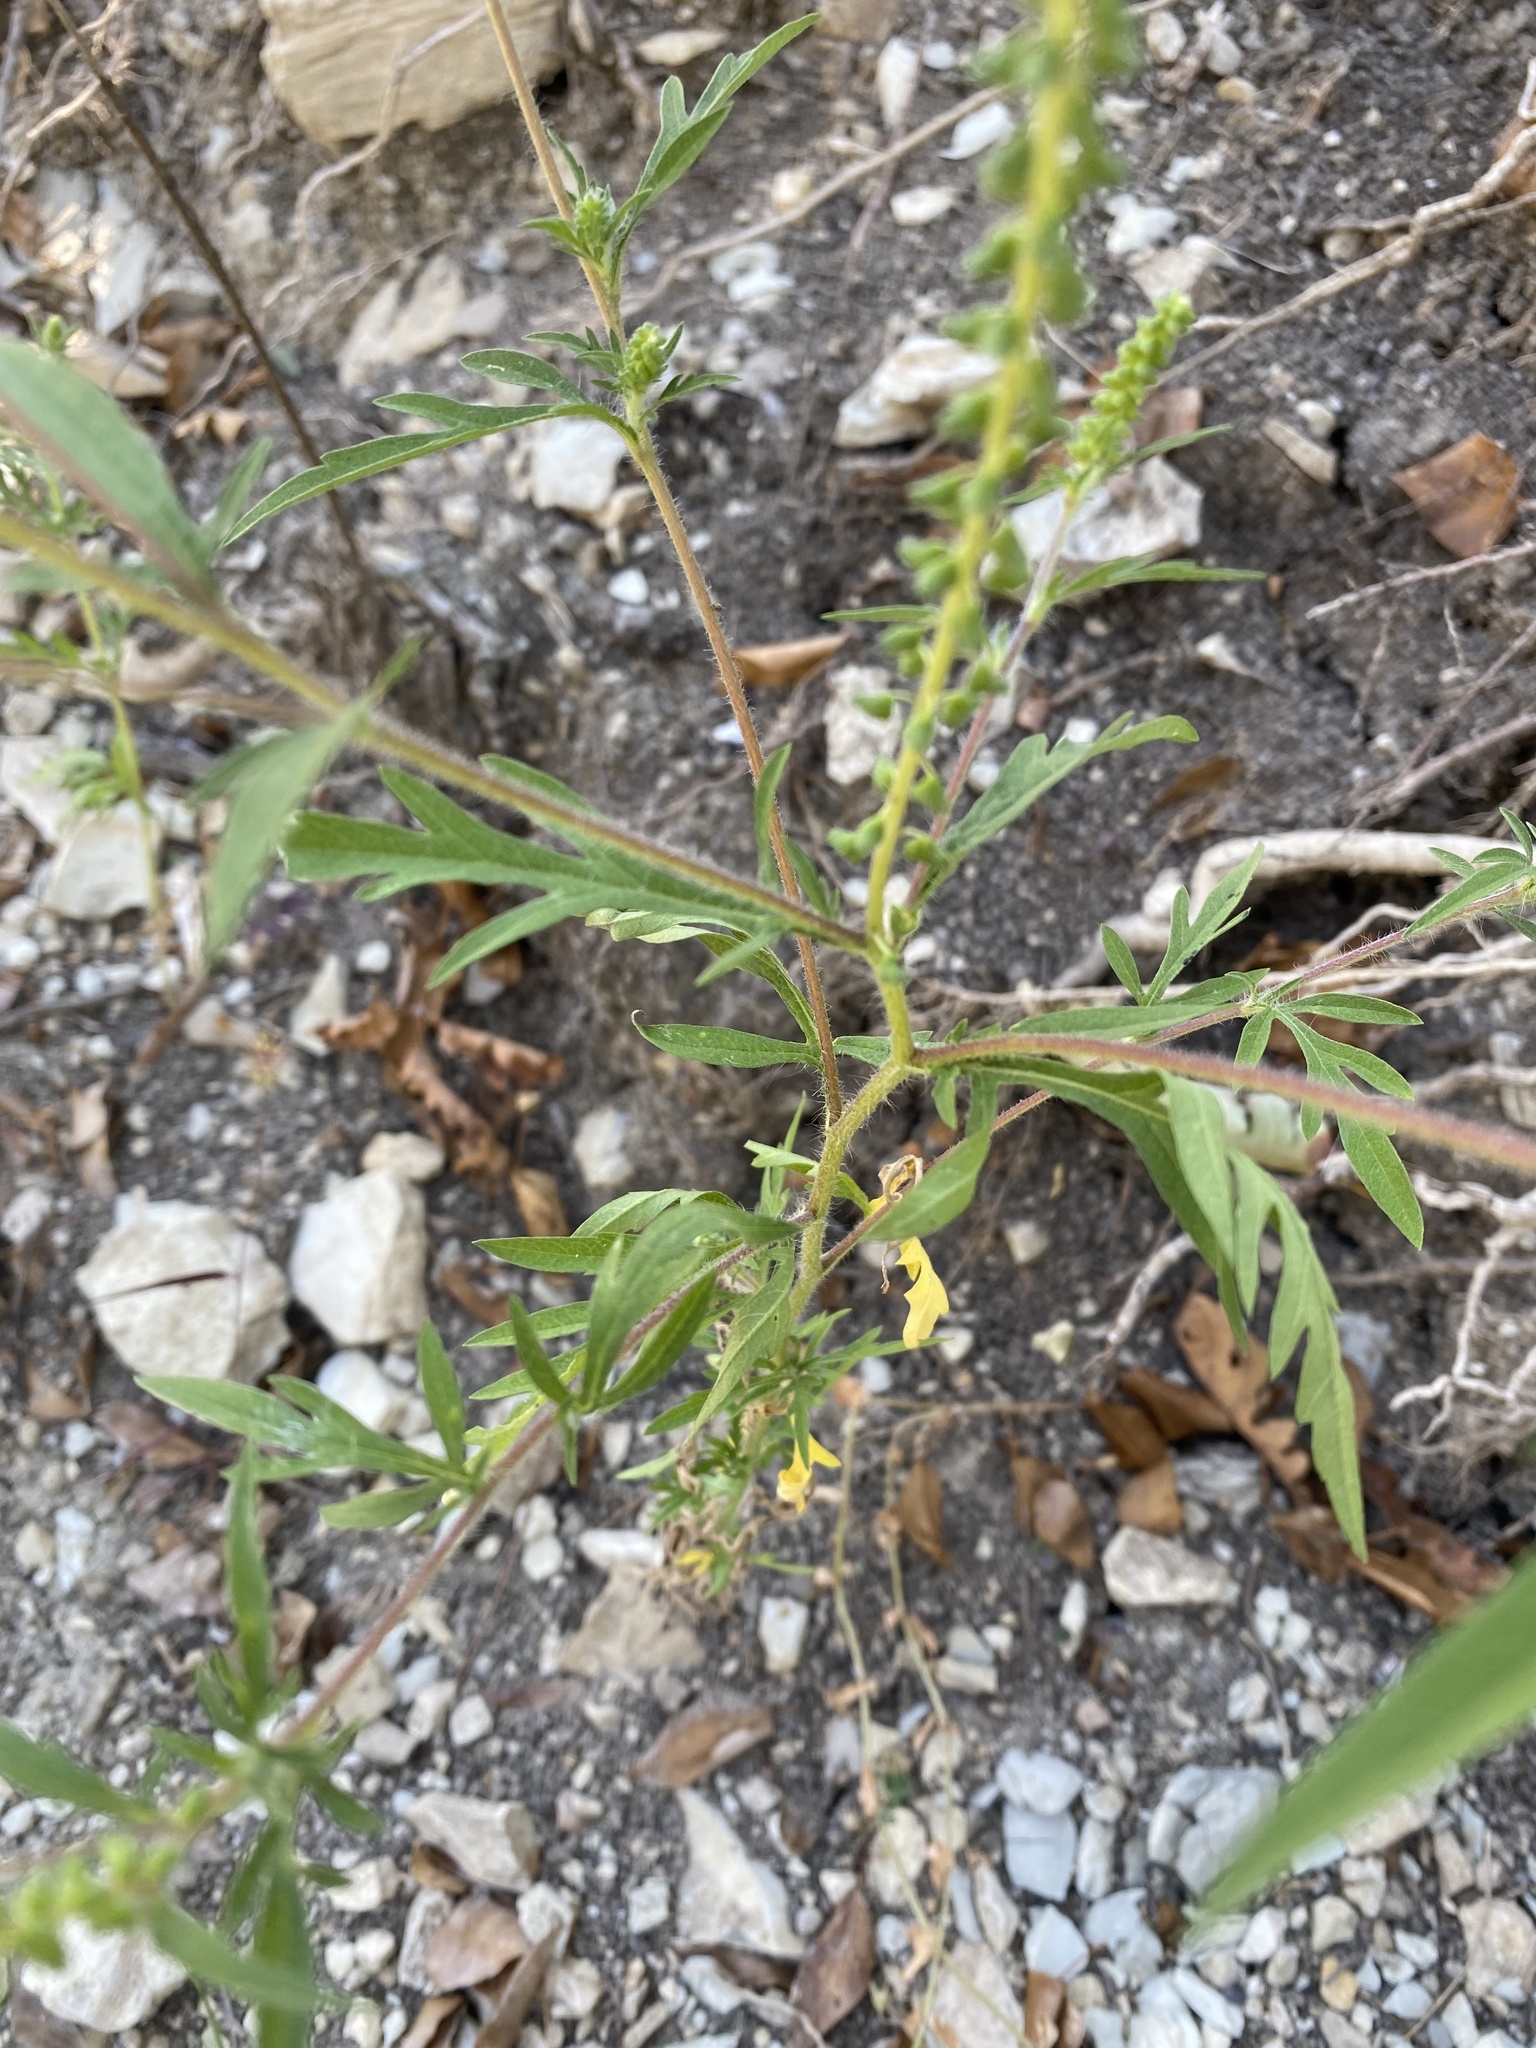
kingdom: Plantae
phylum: Tracheophyta
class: Magnoliopsida
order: Asterales
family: Asteraceae
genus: Ambrosia
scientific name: Ambrosia artemisiifolia
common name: Annual ragweed
